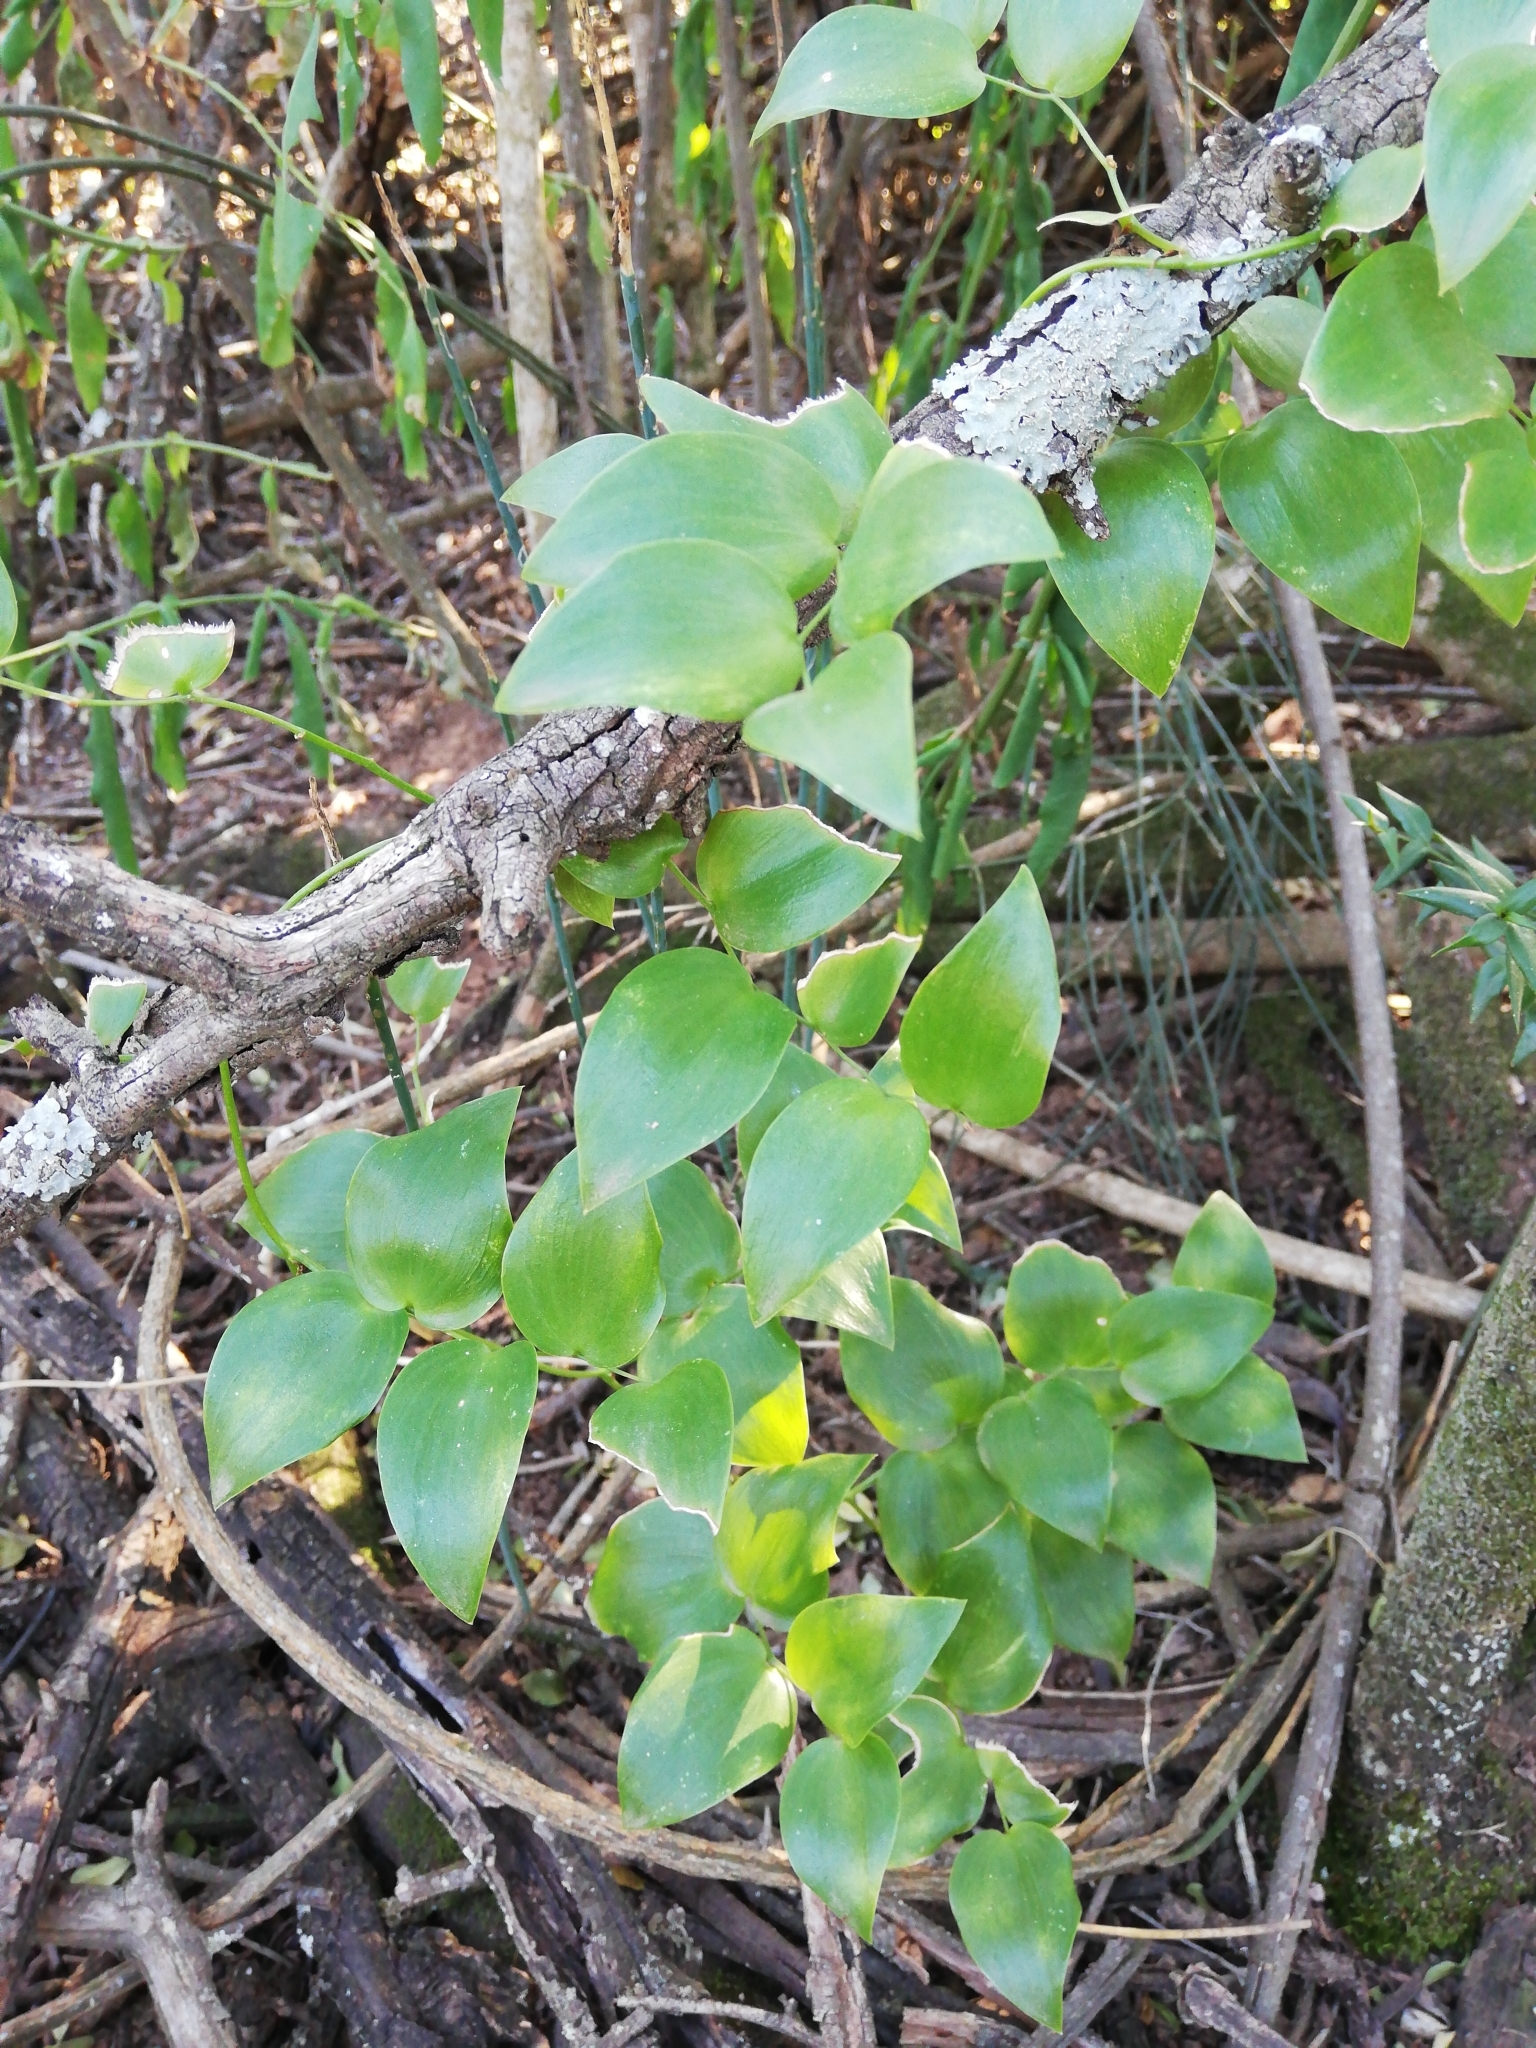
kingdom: Plantae
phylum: Tracheophyta
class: Liliopsida
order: Asparagales
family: Asparagaceae
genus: Asparagus
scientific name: Asparagus asparagoides
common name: African asparagus fern
